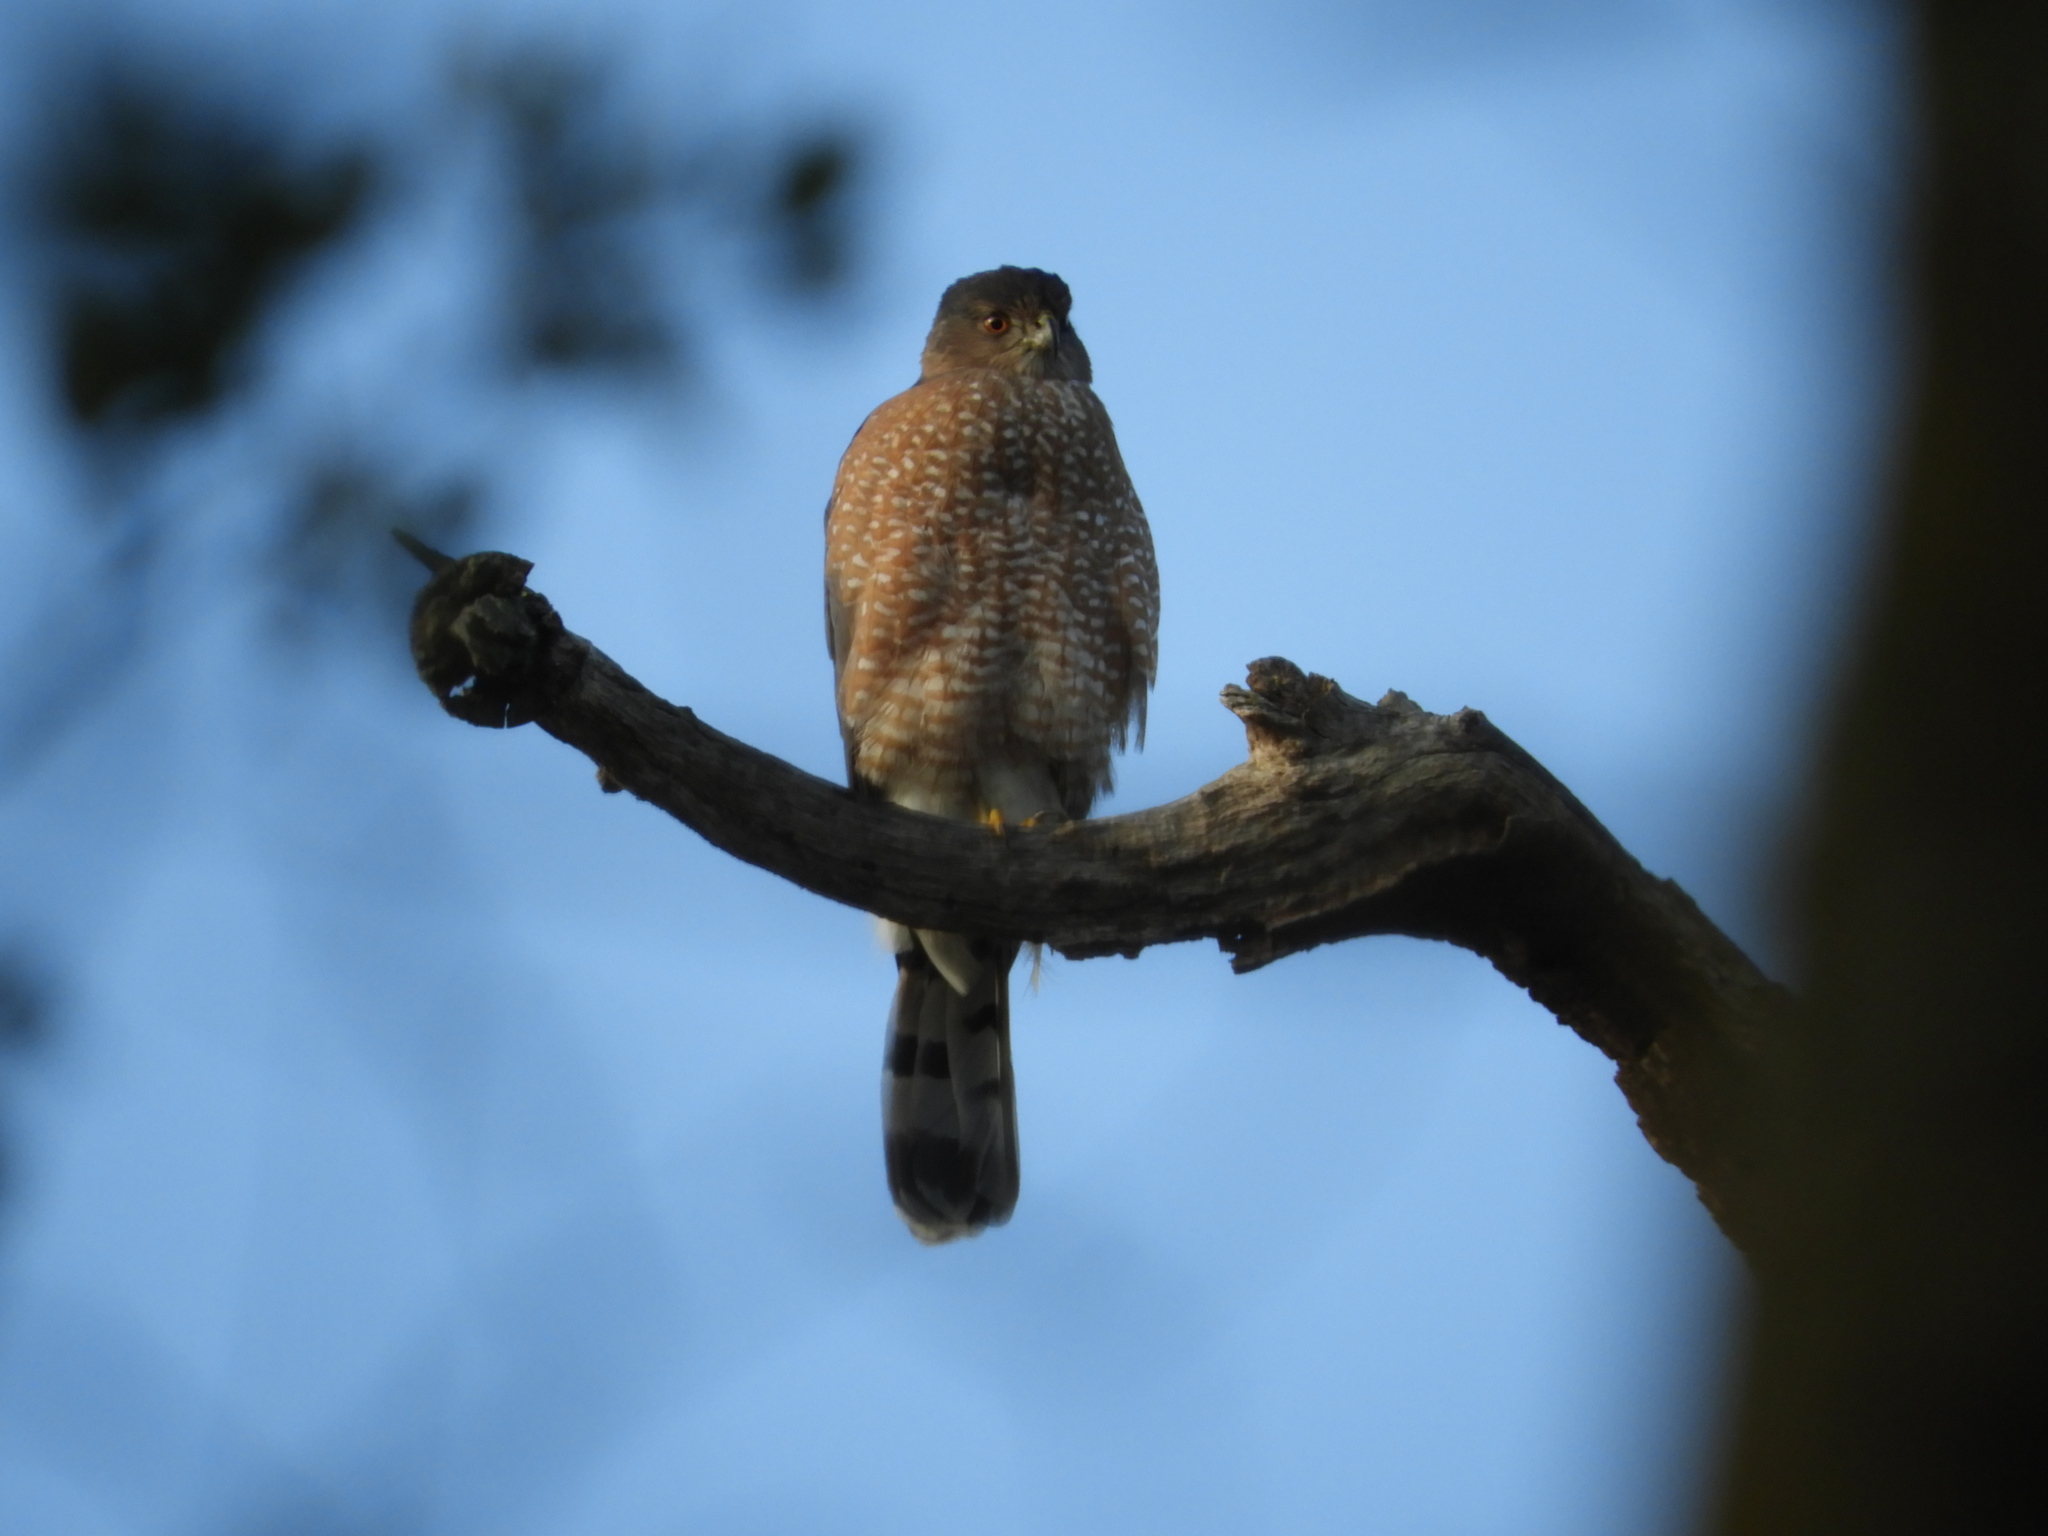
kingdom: Animalia
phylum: Chordata
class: Aves
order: Accipitriformes
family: Accipitridae
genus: Accipiter
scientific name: Accipiter cooperii
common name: Cooper's hawk
